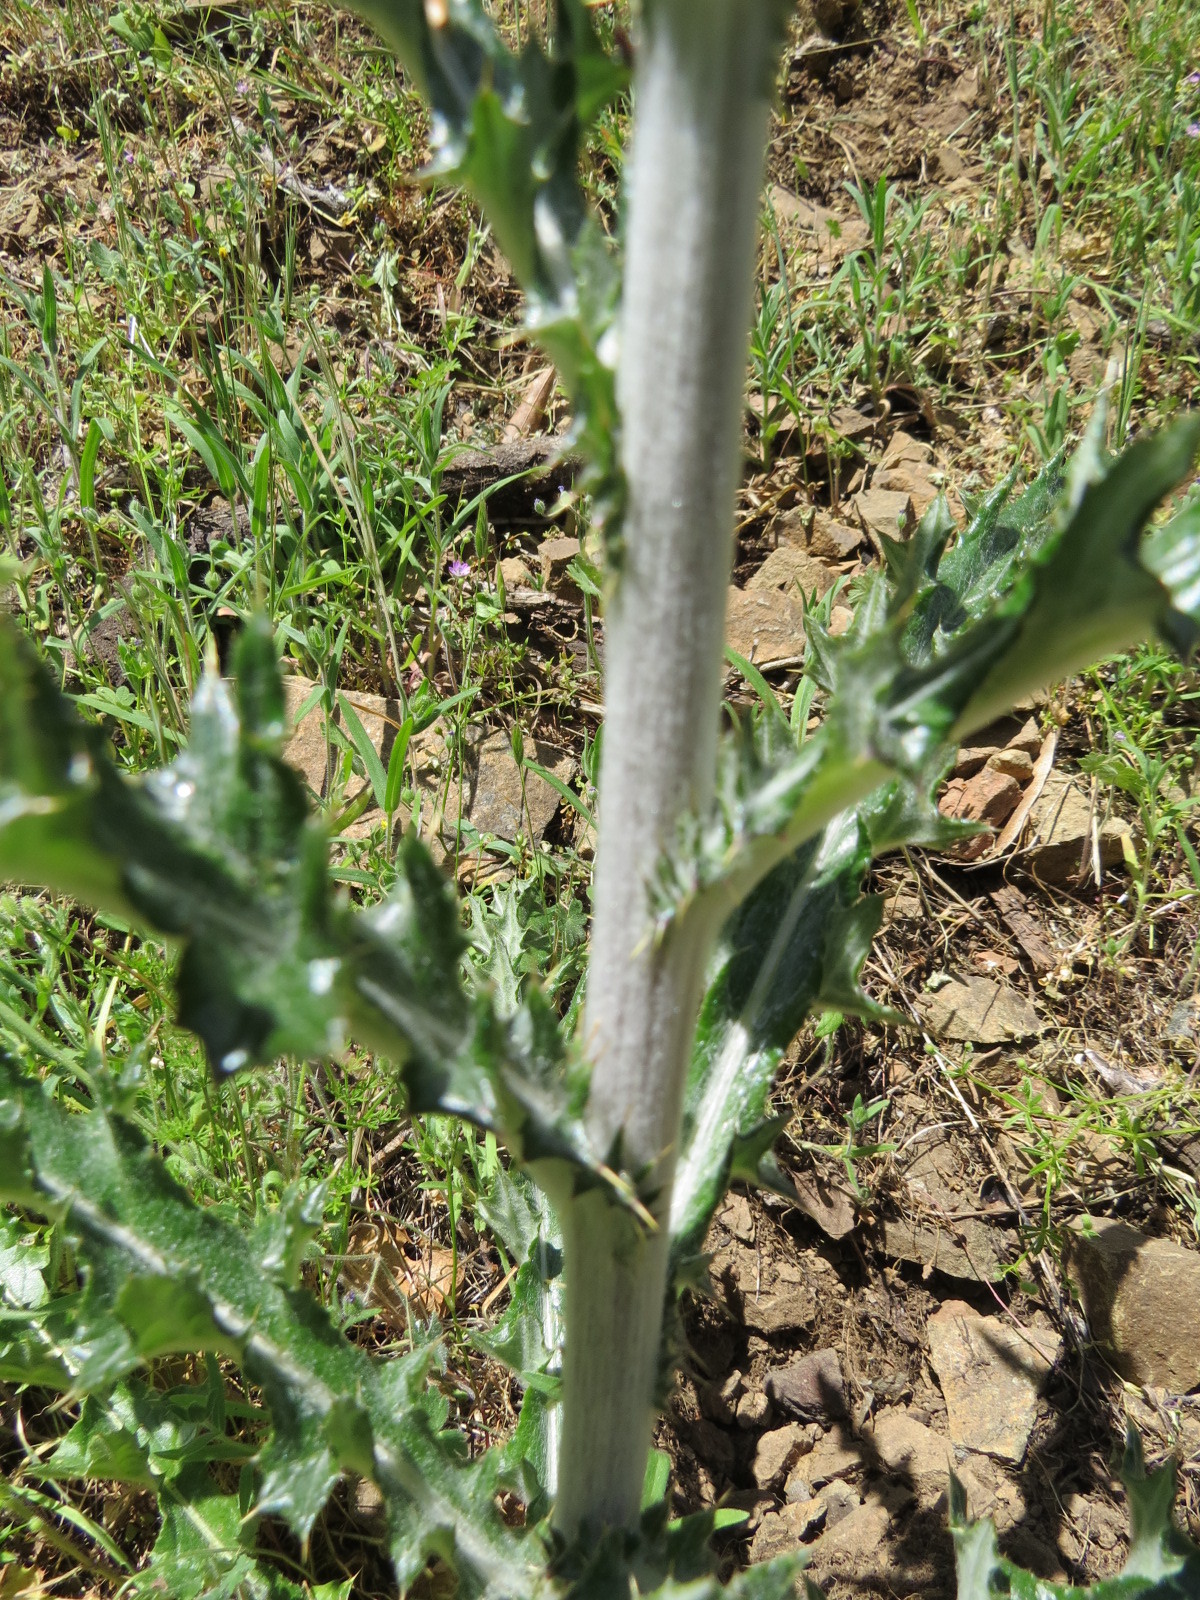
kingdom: Plantae
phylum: Tracheophyta
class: Magnoliopsida
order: Asterales
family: Asteraceae
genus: Cirsium
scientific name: Cirsium occidentale
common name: Western thistle
